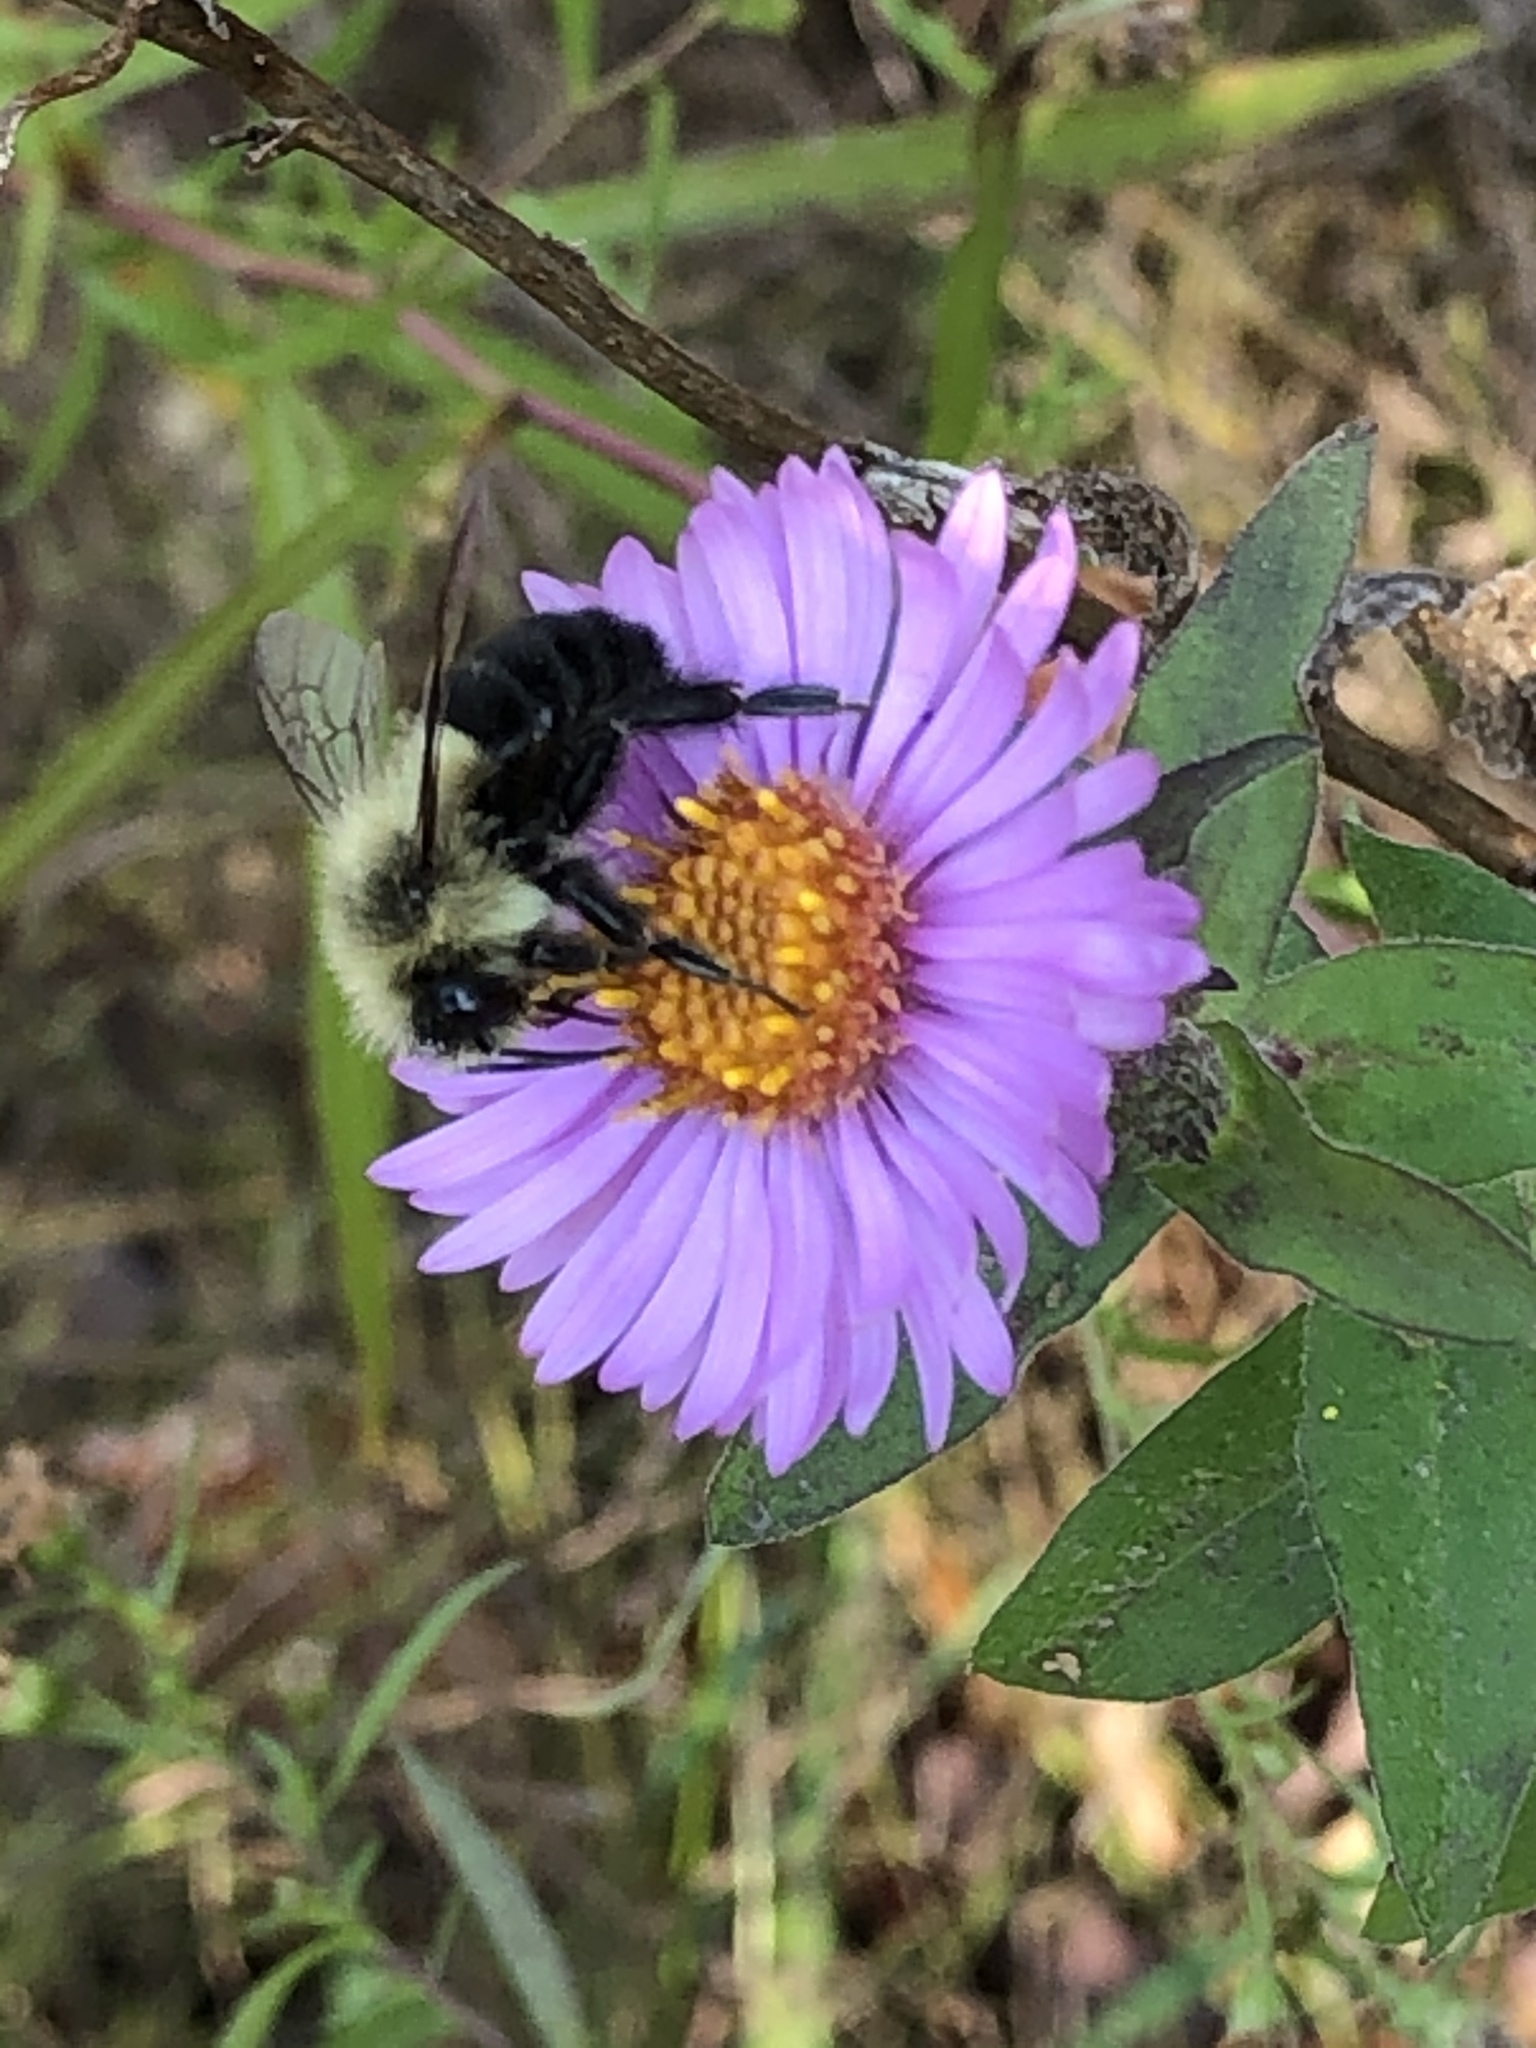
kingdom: Animalia
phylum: Arthropoda
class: Insecta
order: Hymenoptera
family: Apidae
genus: Bombus
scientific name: Bombus impatiens
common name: Common eastern bumble bee
